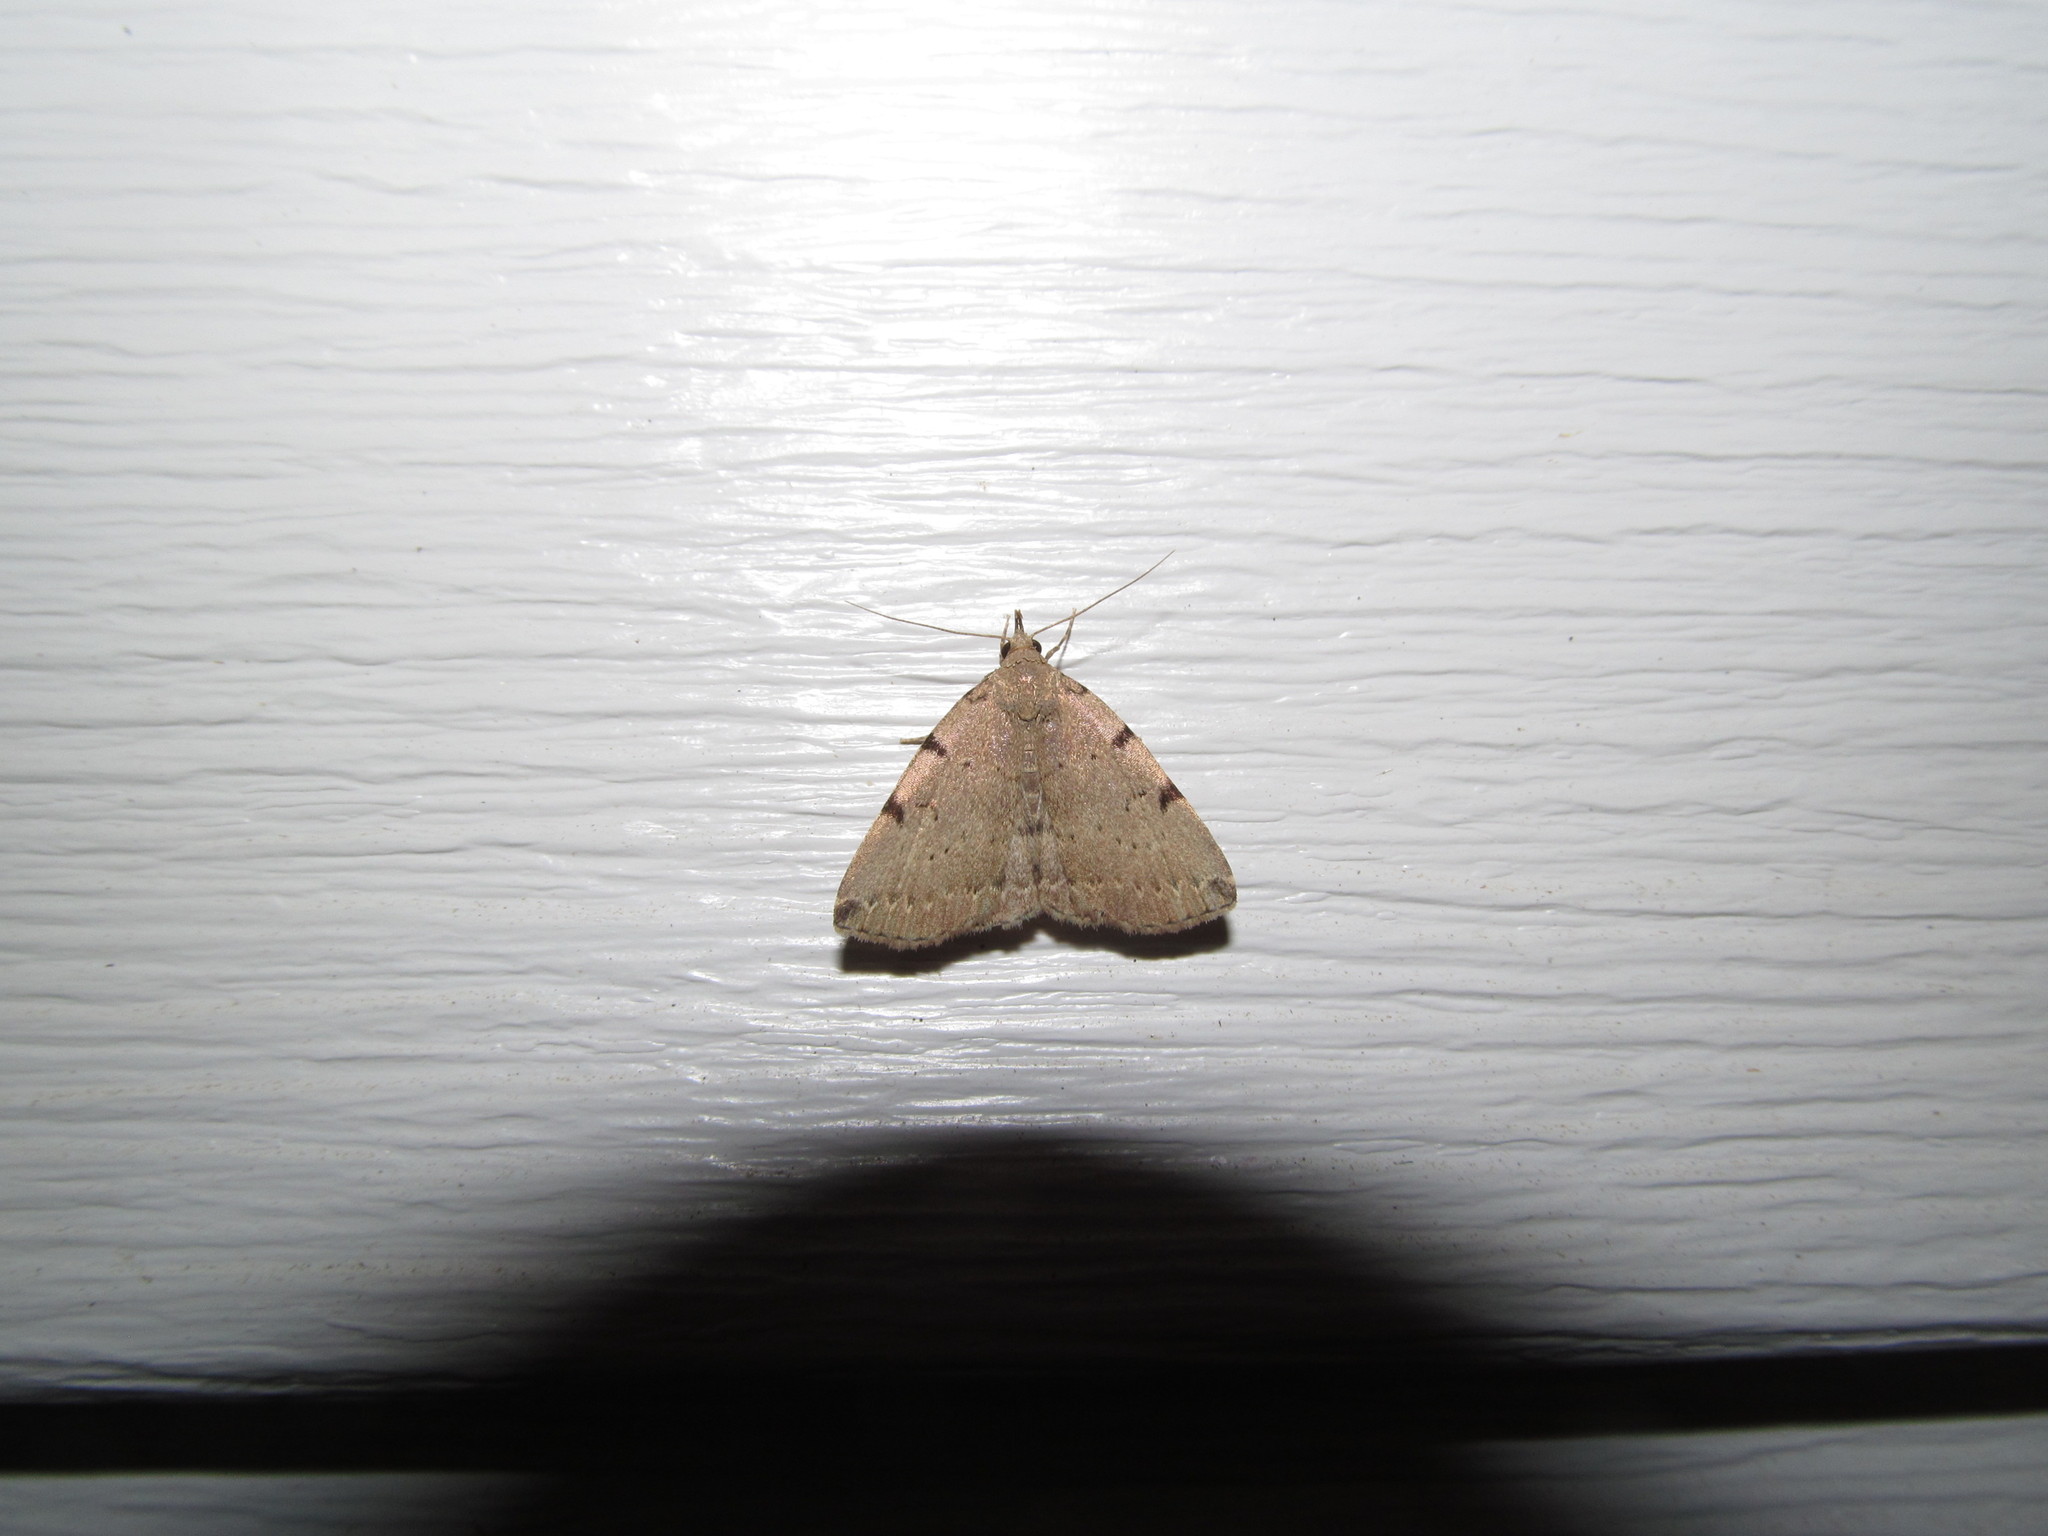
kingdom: Animalia
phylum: Arthropoda
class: Insecta
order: Lepidoptera
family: Erebidae
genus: Zanclognatha
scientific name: Zanclognatha lituralis
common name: Lettered fan-foot
